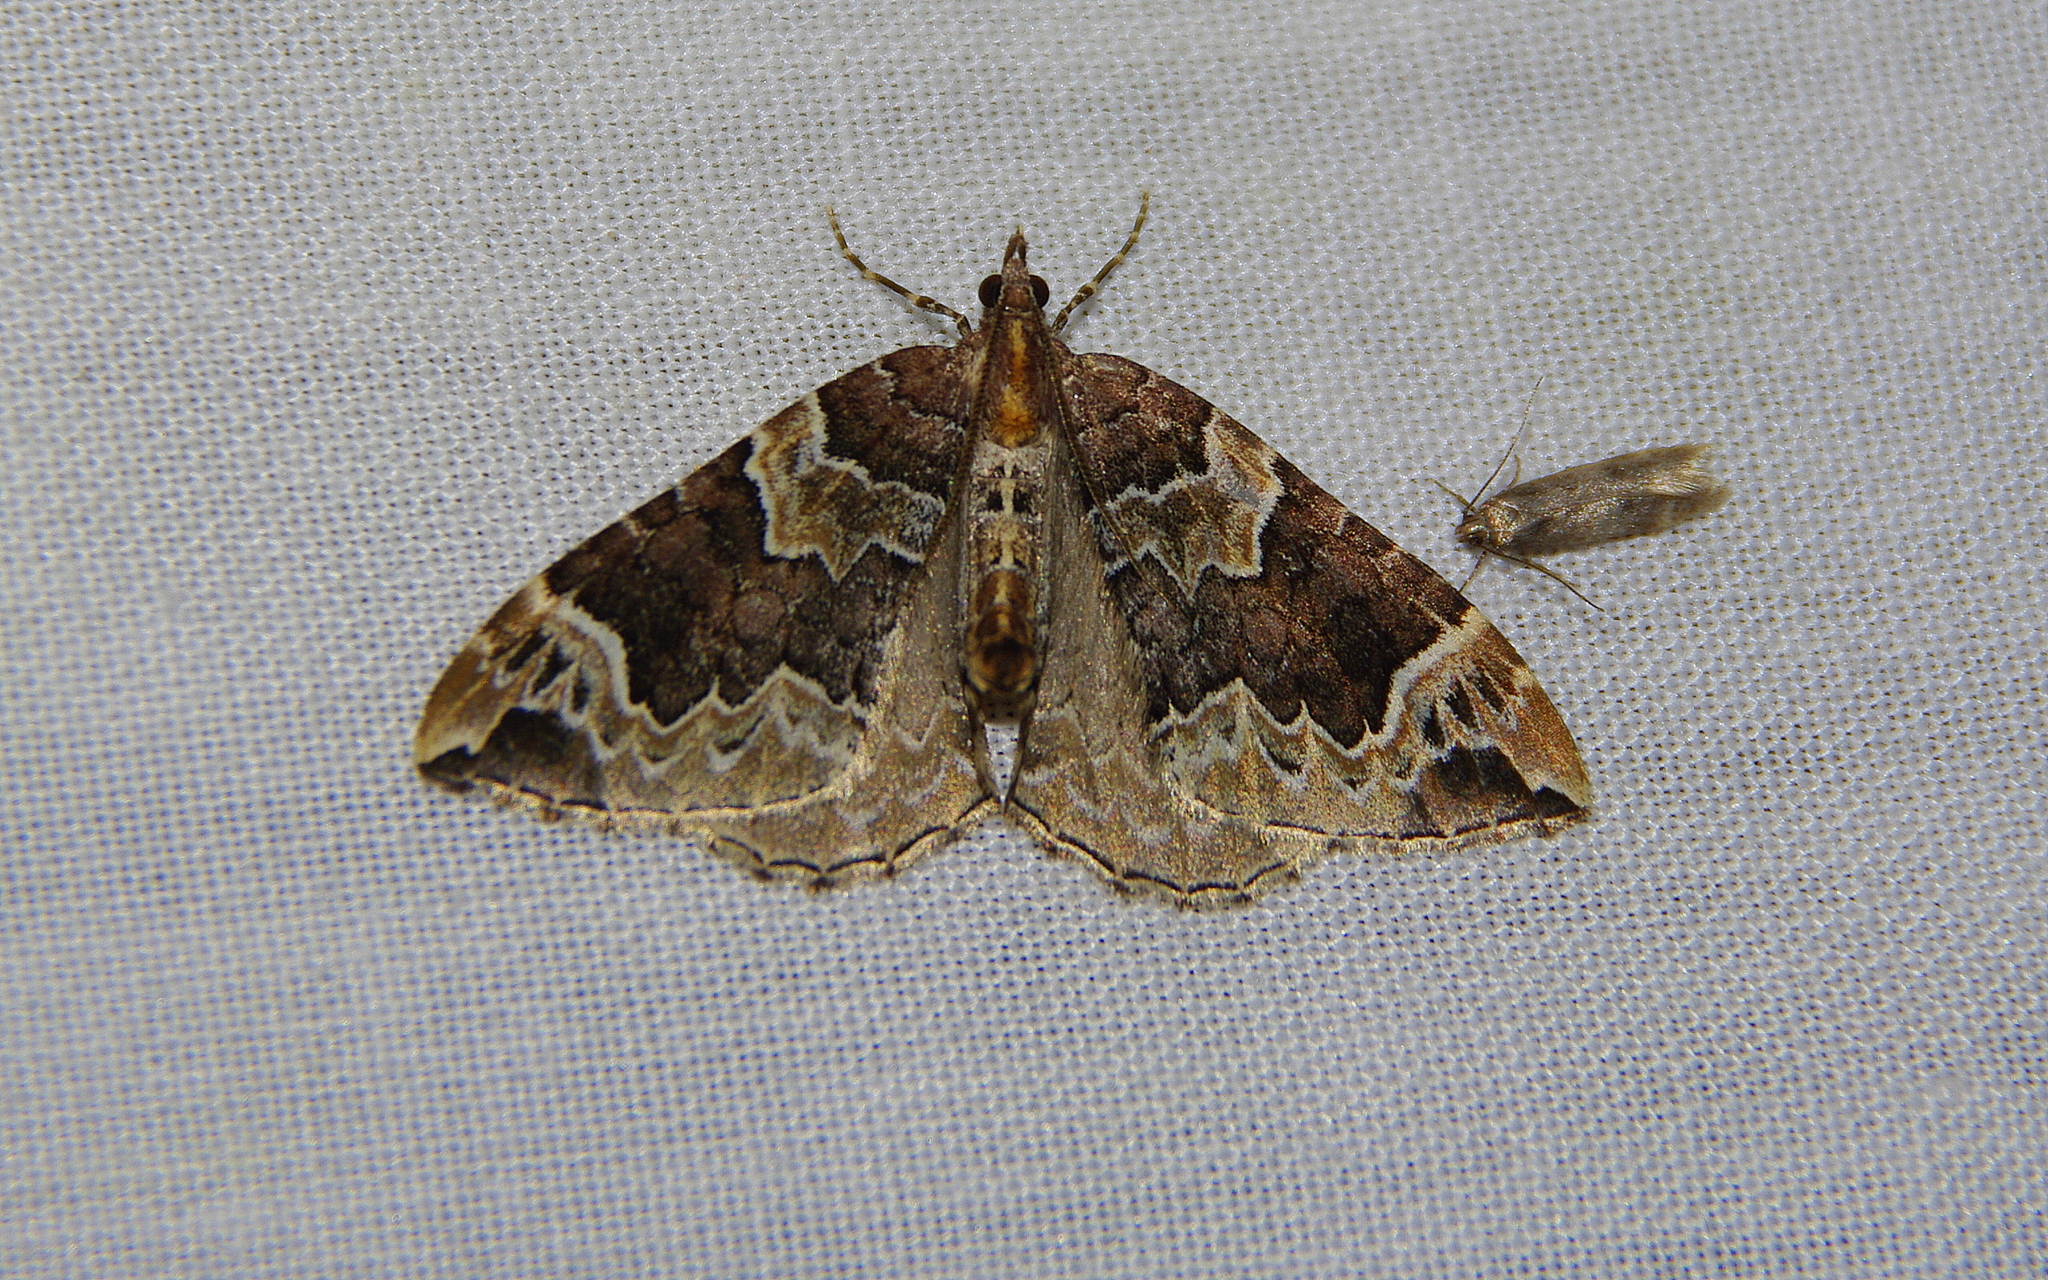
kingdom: Animalia
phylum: Arthropoda
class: Insecta
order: Lepidoptera
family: Geometridae
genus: Eulithis
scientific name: Eulithis xylina
